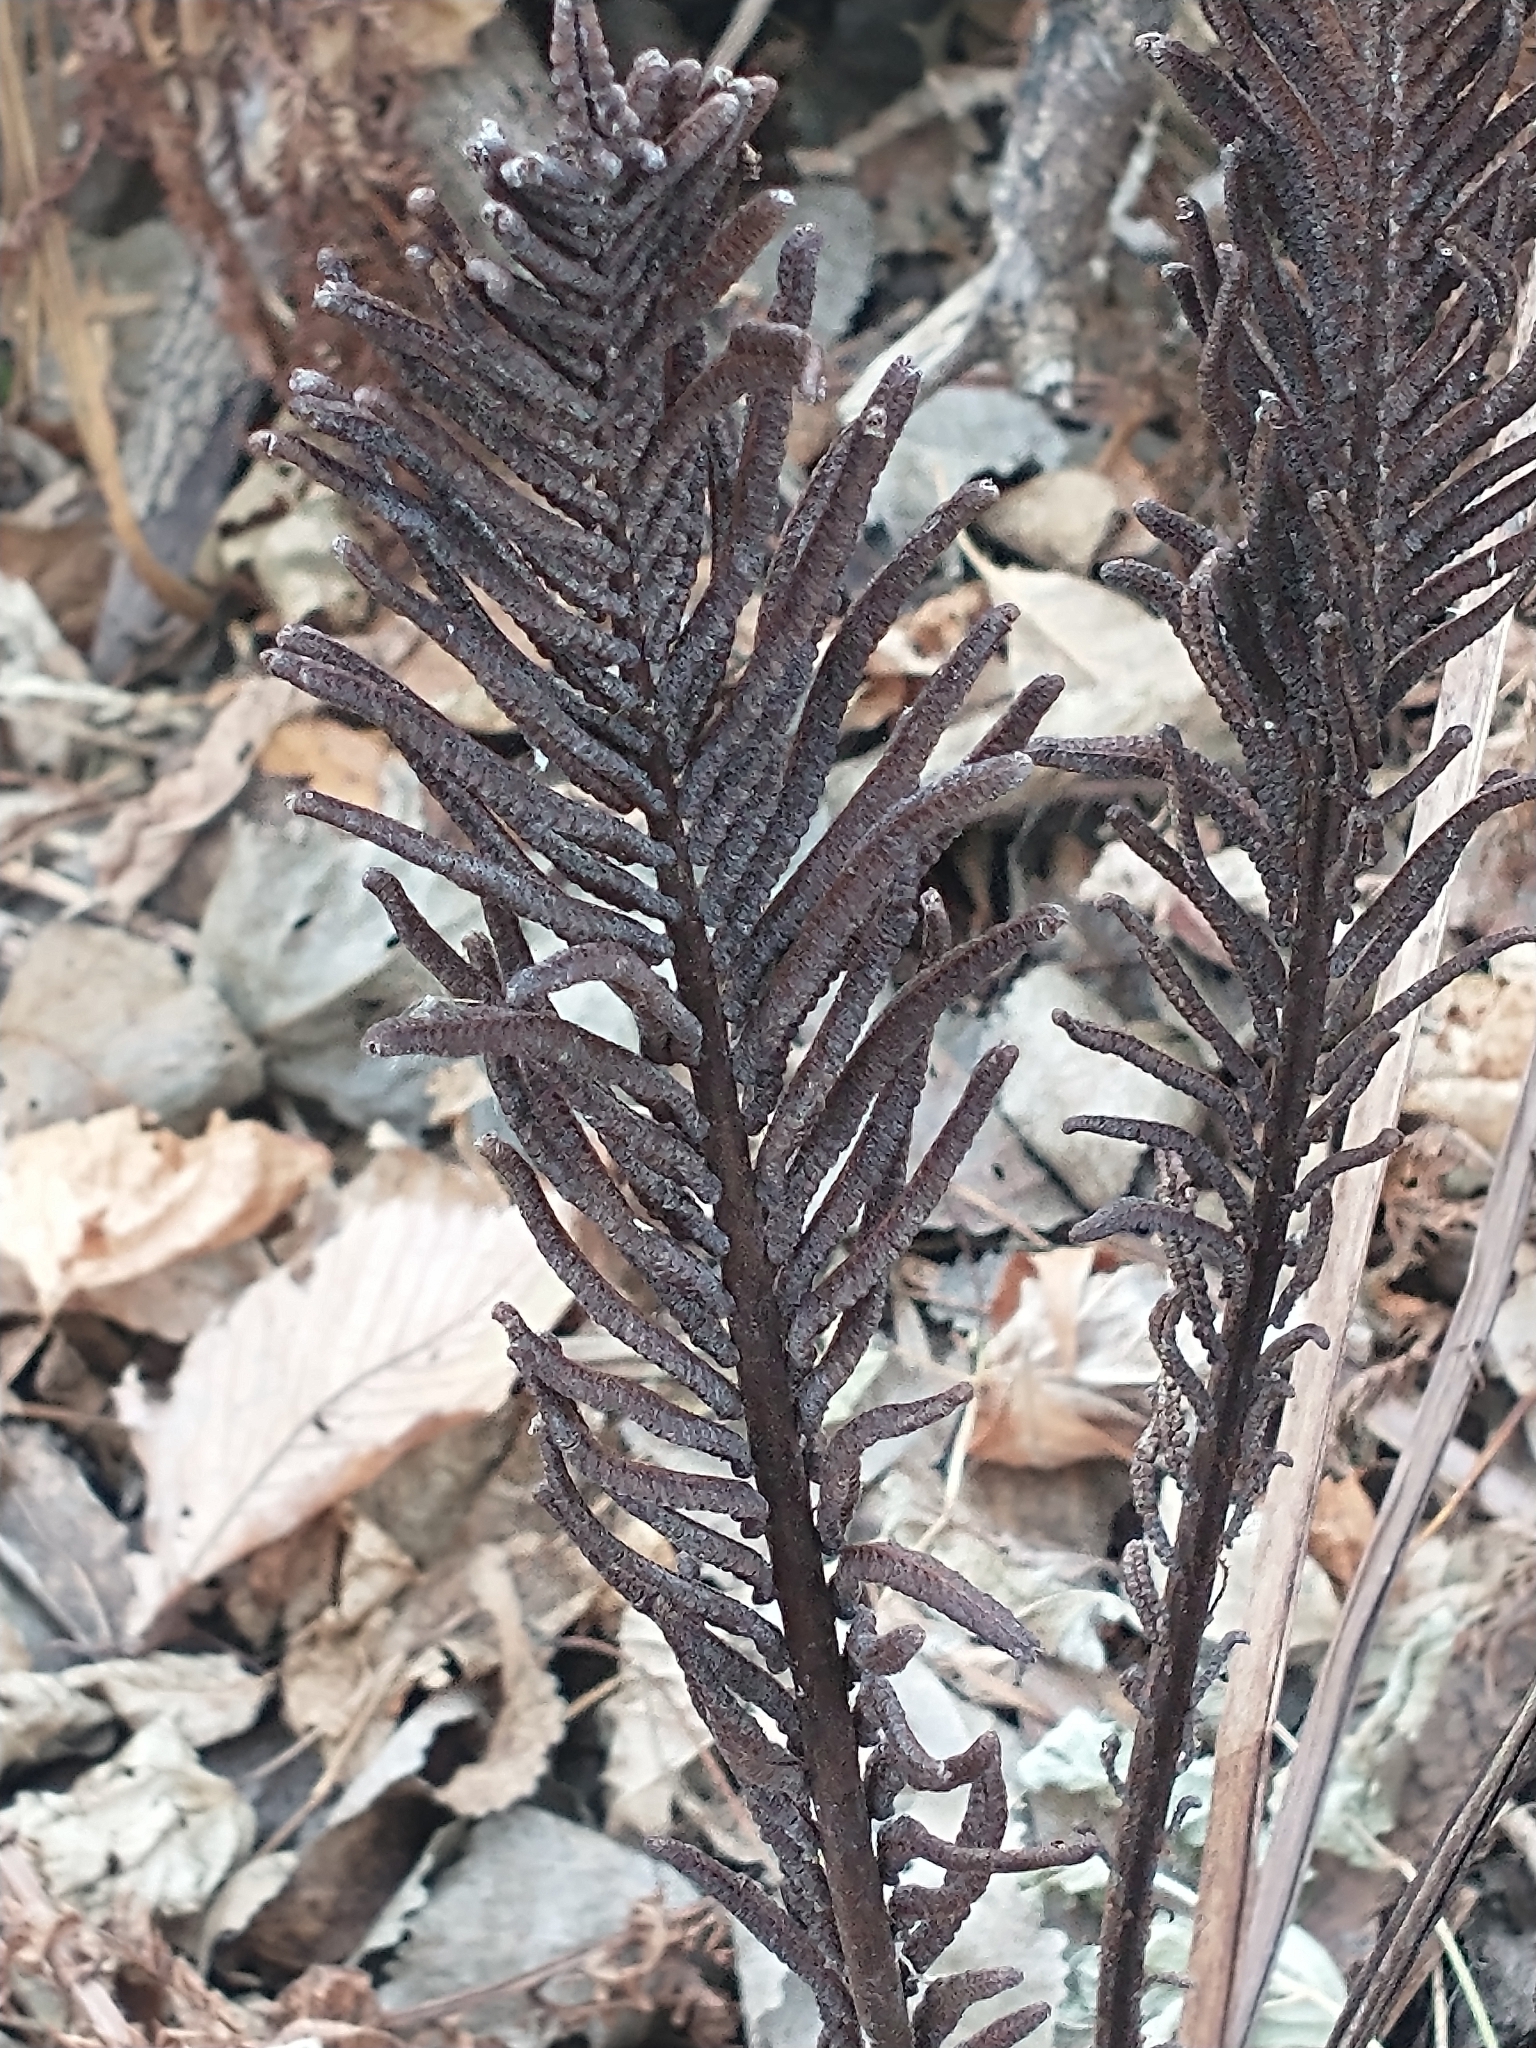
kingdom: Plantae
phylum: Tracheophyta
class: Polypodiopsida
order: Polypodiales
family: Onocleaceae
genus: Matteuccia
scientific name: Matteuccia struthiopteris
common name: Ostrich fern
